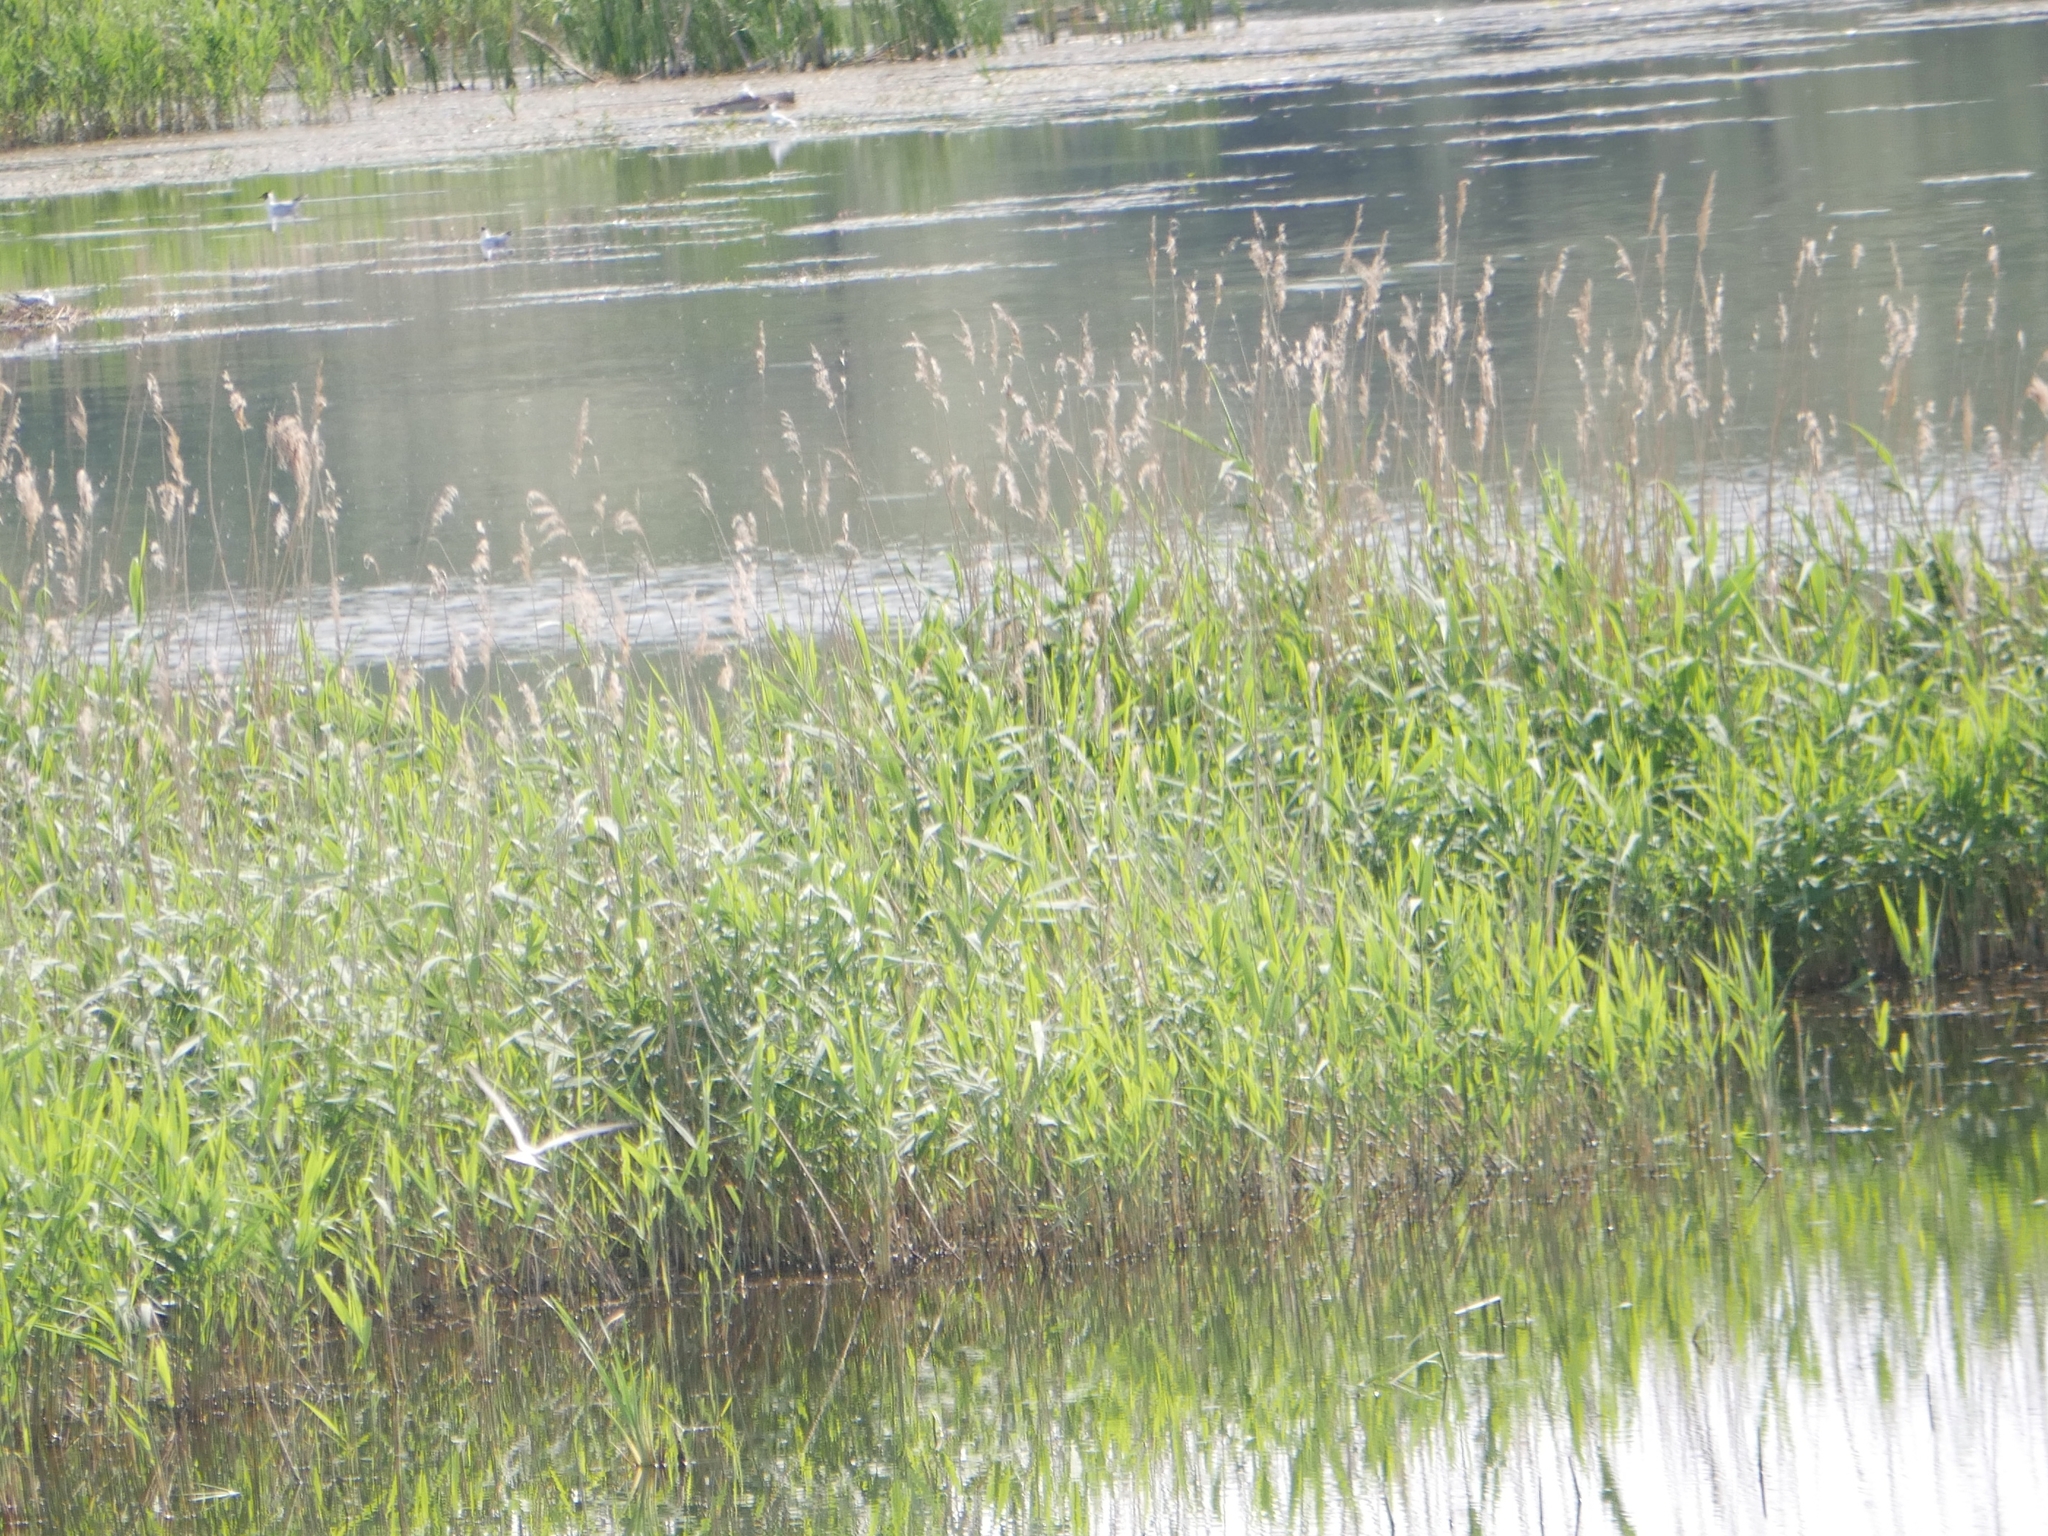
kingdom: Plantae
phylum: Tracheophyta
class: Liliopsida
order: Poales
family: Poaceae
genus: Phragmites
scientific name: Phragmites australis
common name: Common reed
